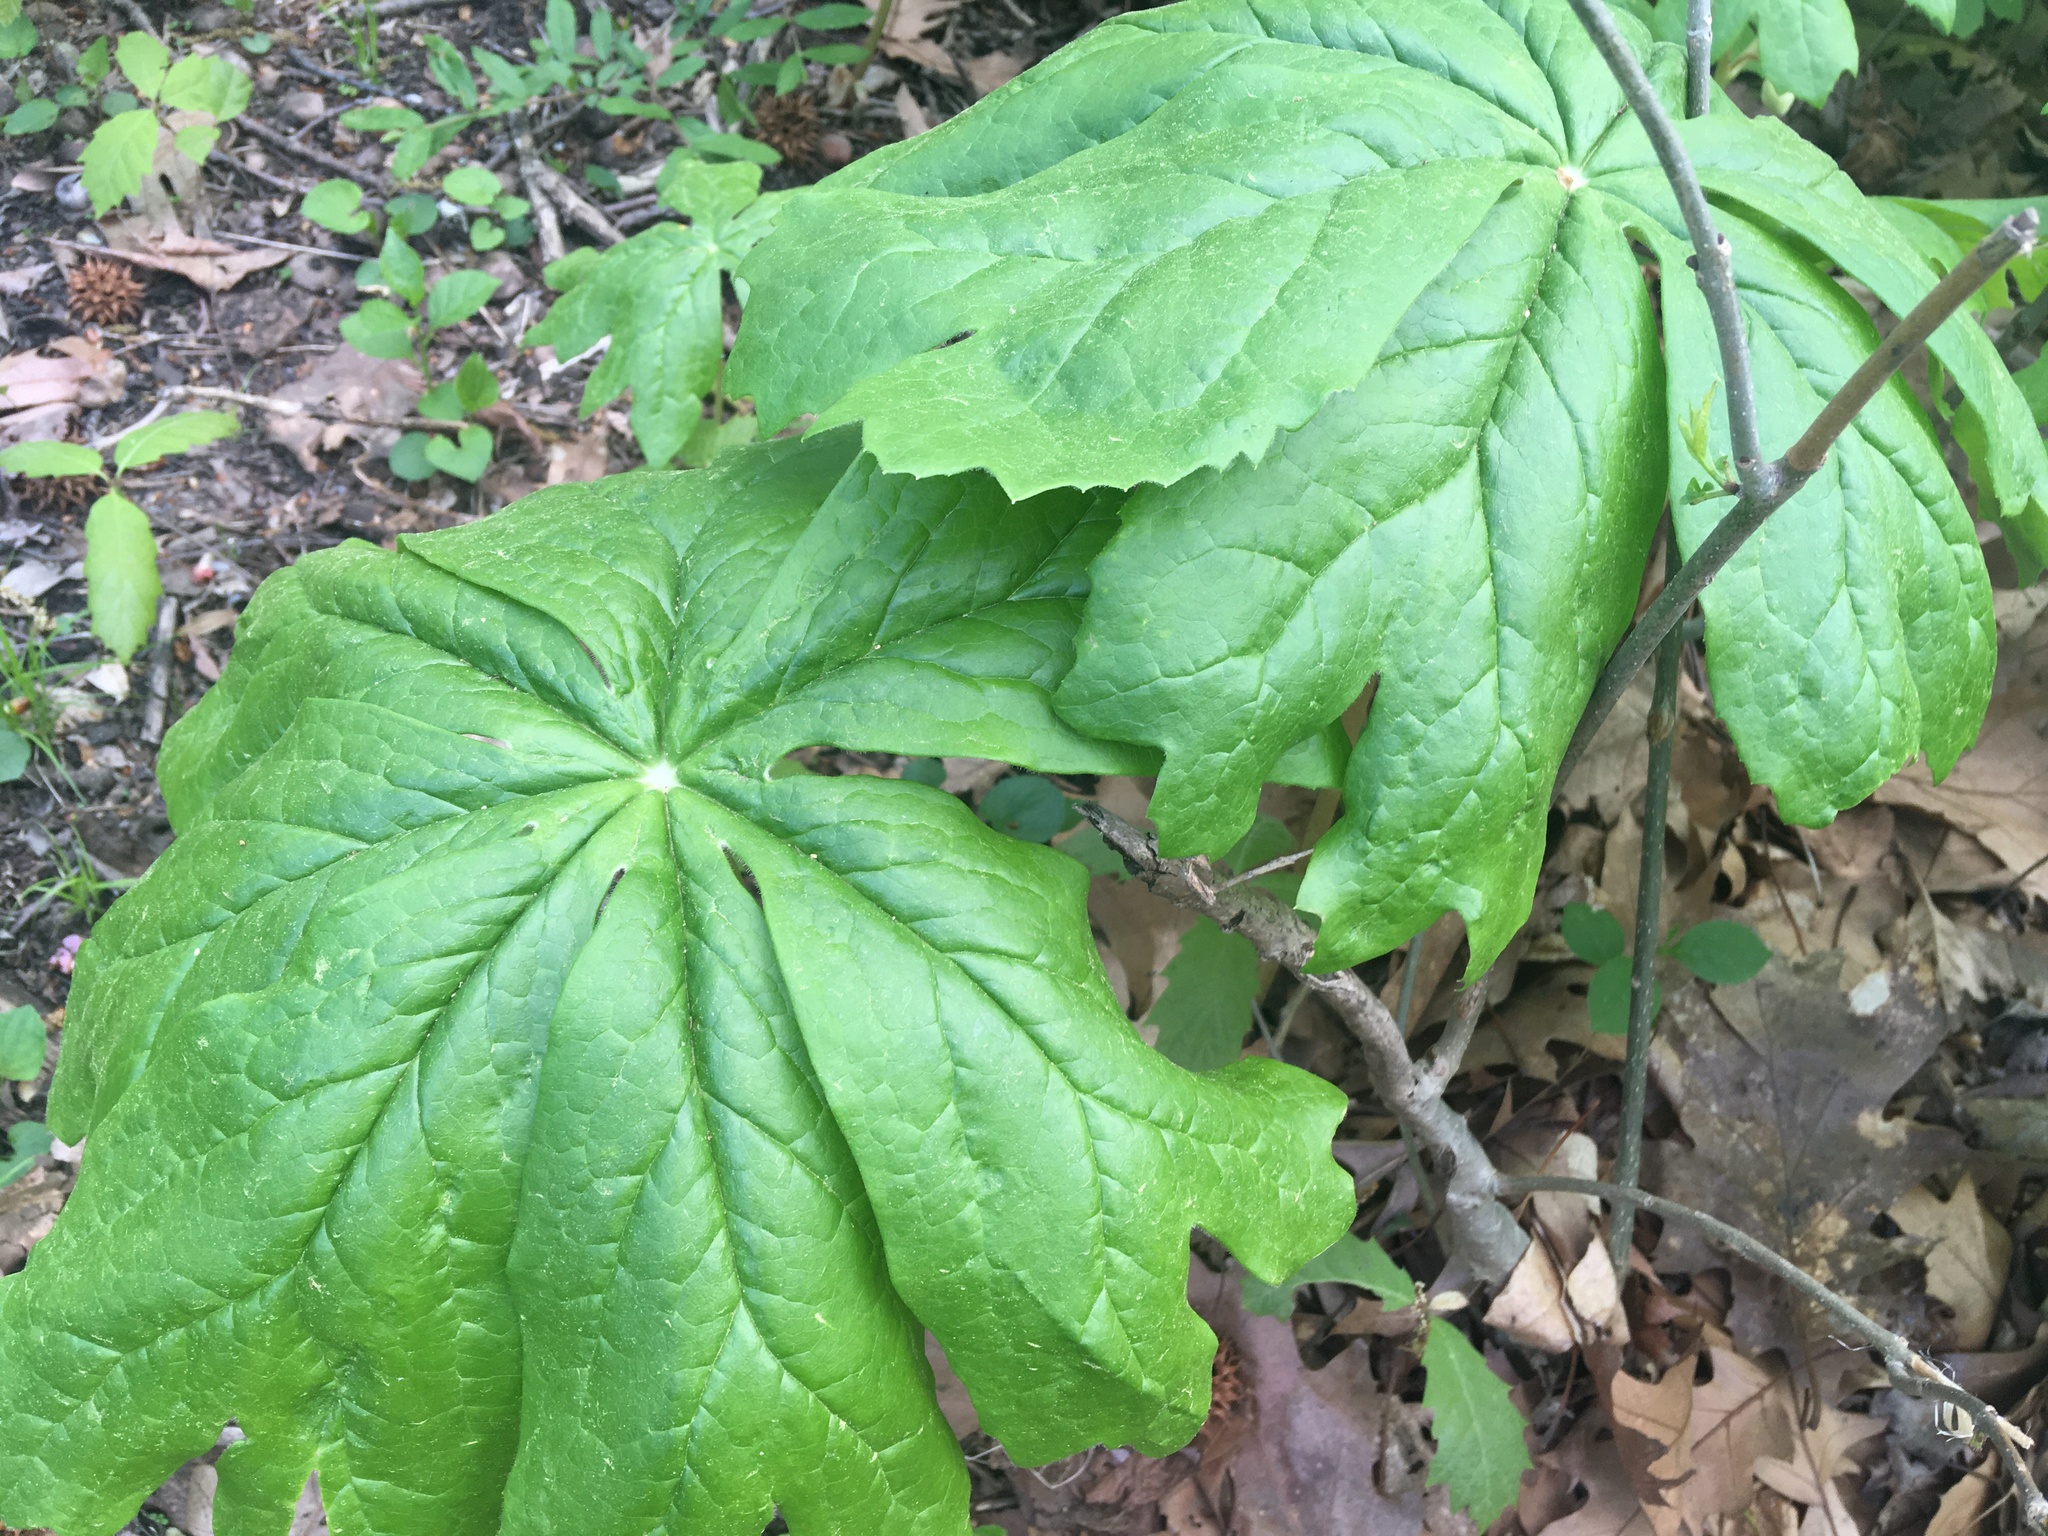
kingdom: Plantae
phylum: Tracheophyta
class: Magnoliopsida
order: Ranunculales
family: Berberidaceae
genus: Podophyllum
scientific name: Podophyllum peltatum
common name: Wild mandrake
